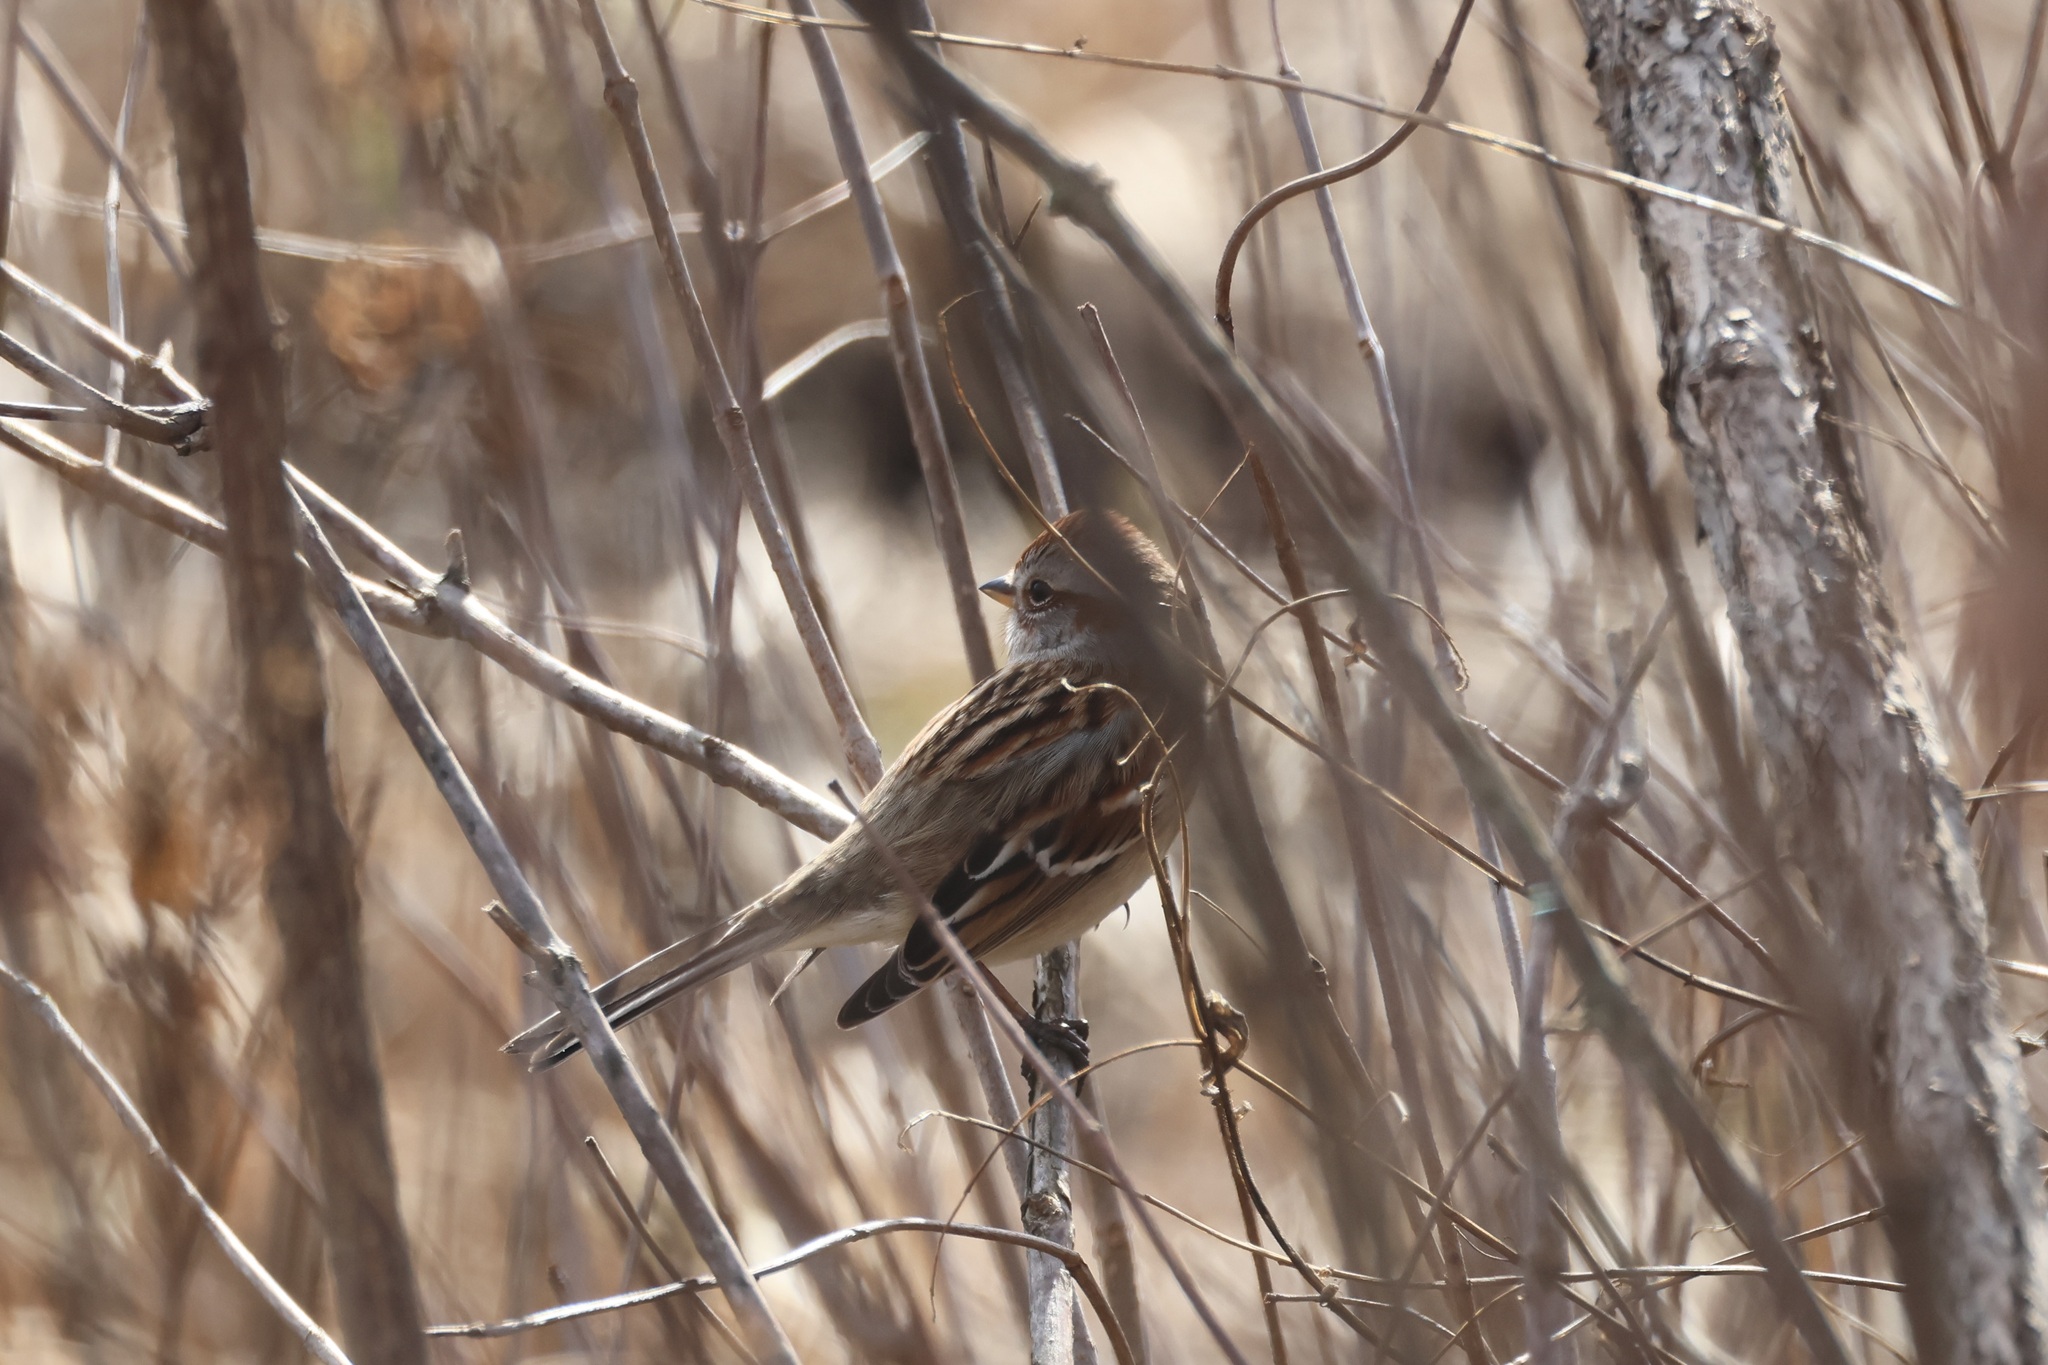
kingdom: Animalia
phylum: Chordata
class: Aves
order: Passeriformes
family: Passerellidae
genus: Spizelloides
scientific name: Spizelloides arborea
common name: American tree sparrow
